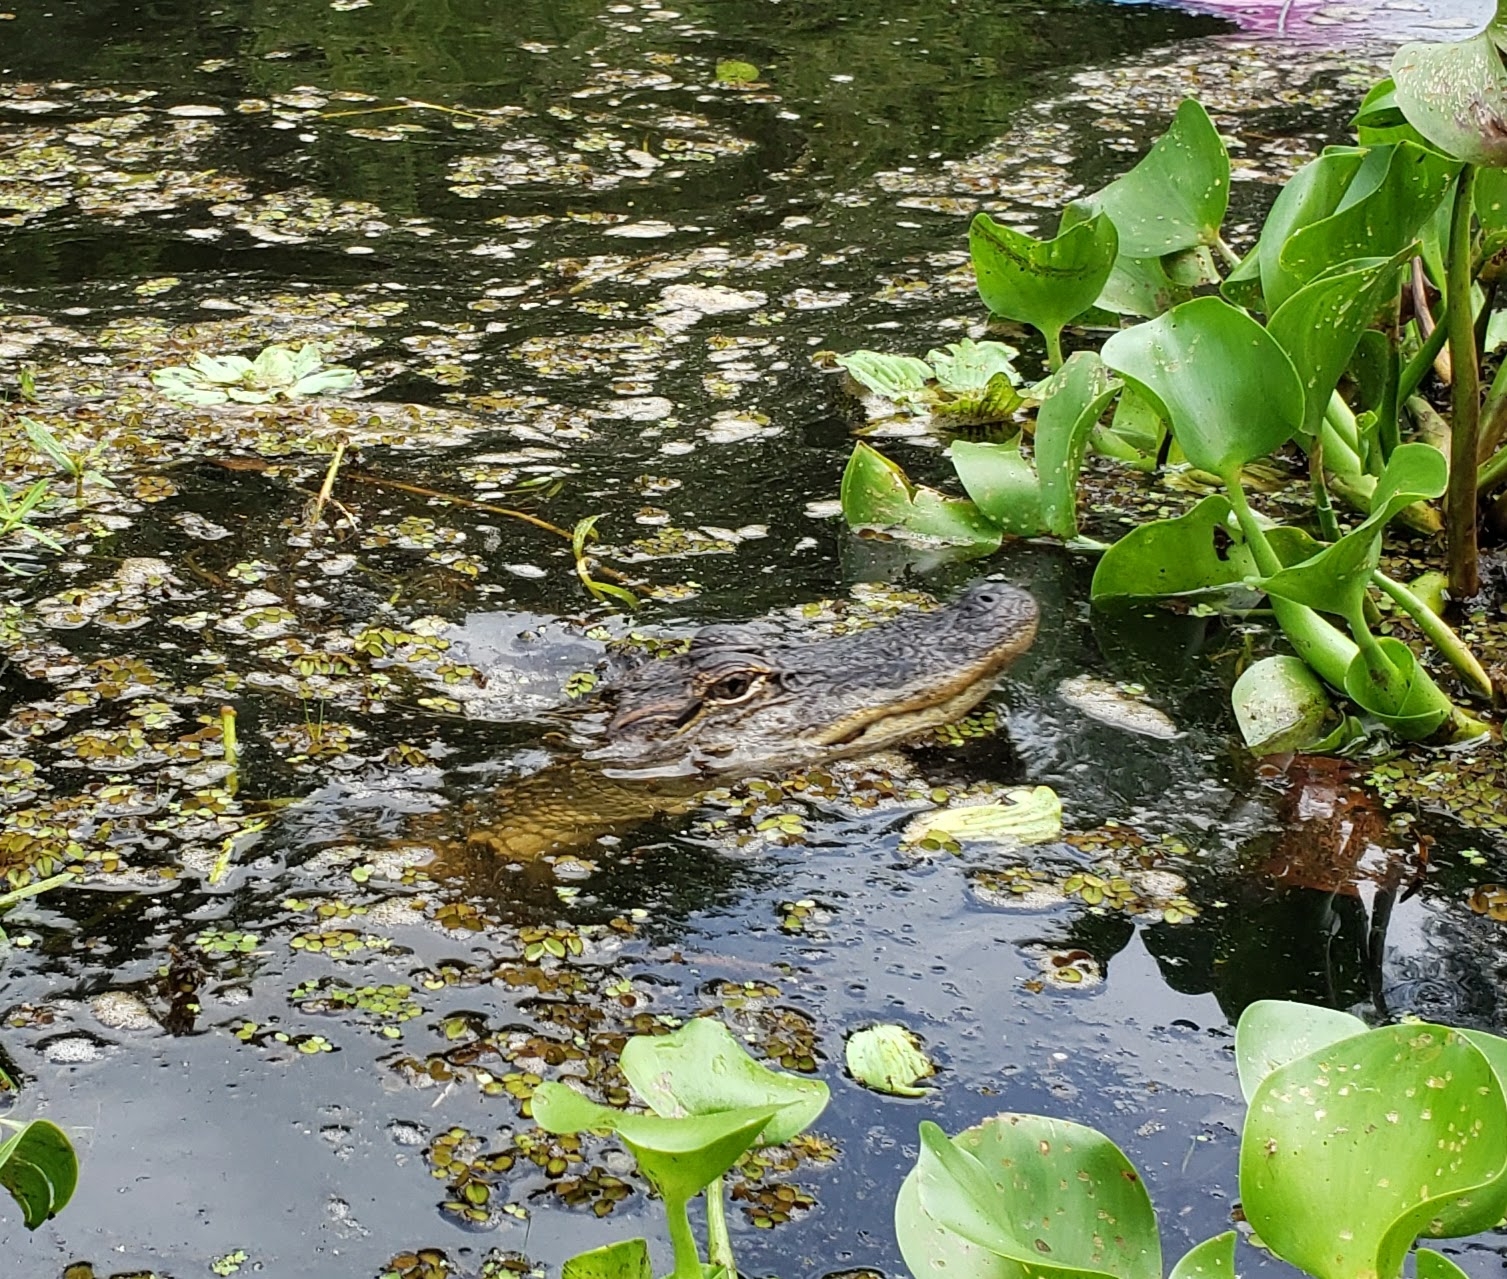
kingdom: Animalia
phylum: Chordata
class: Crocodylia
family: Alligatoridae
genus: Alligator
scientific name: Alligator mississippiensis
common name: American alligator
